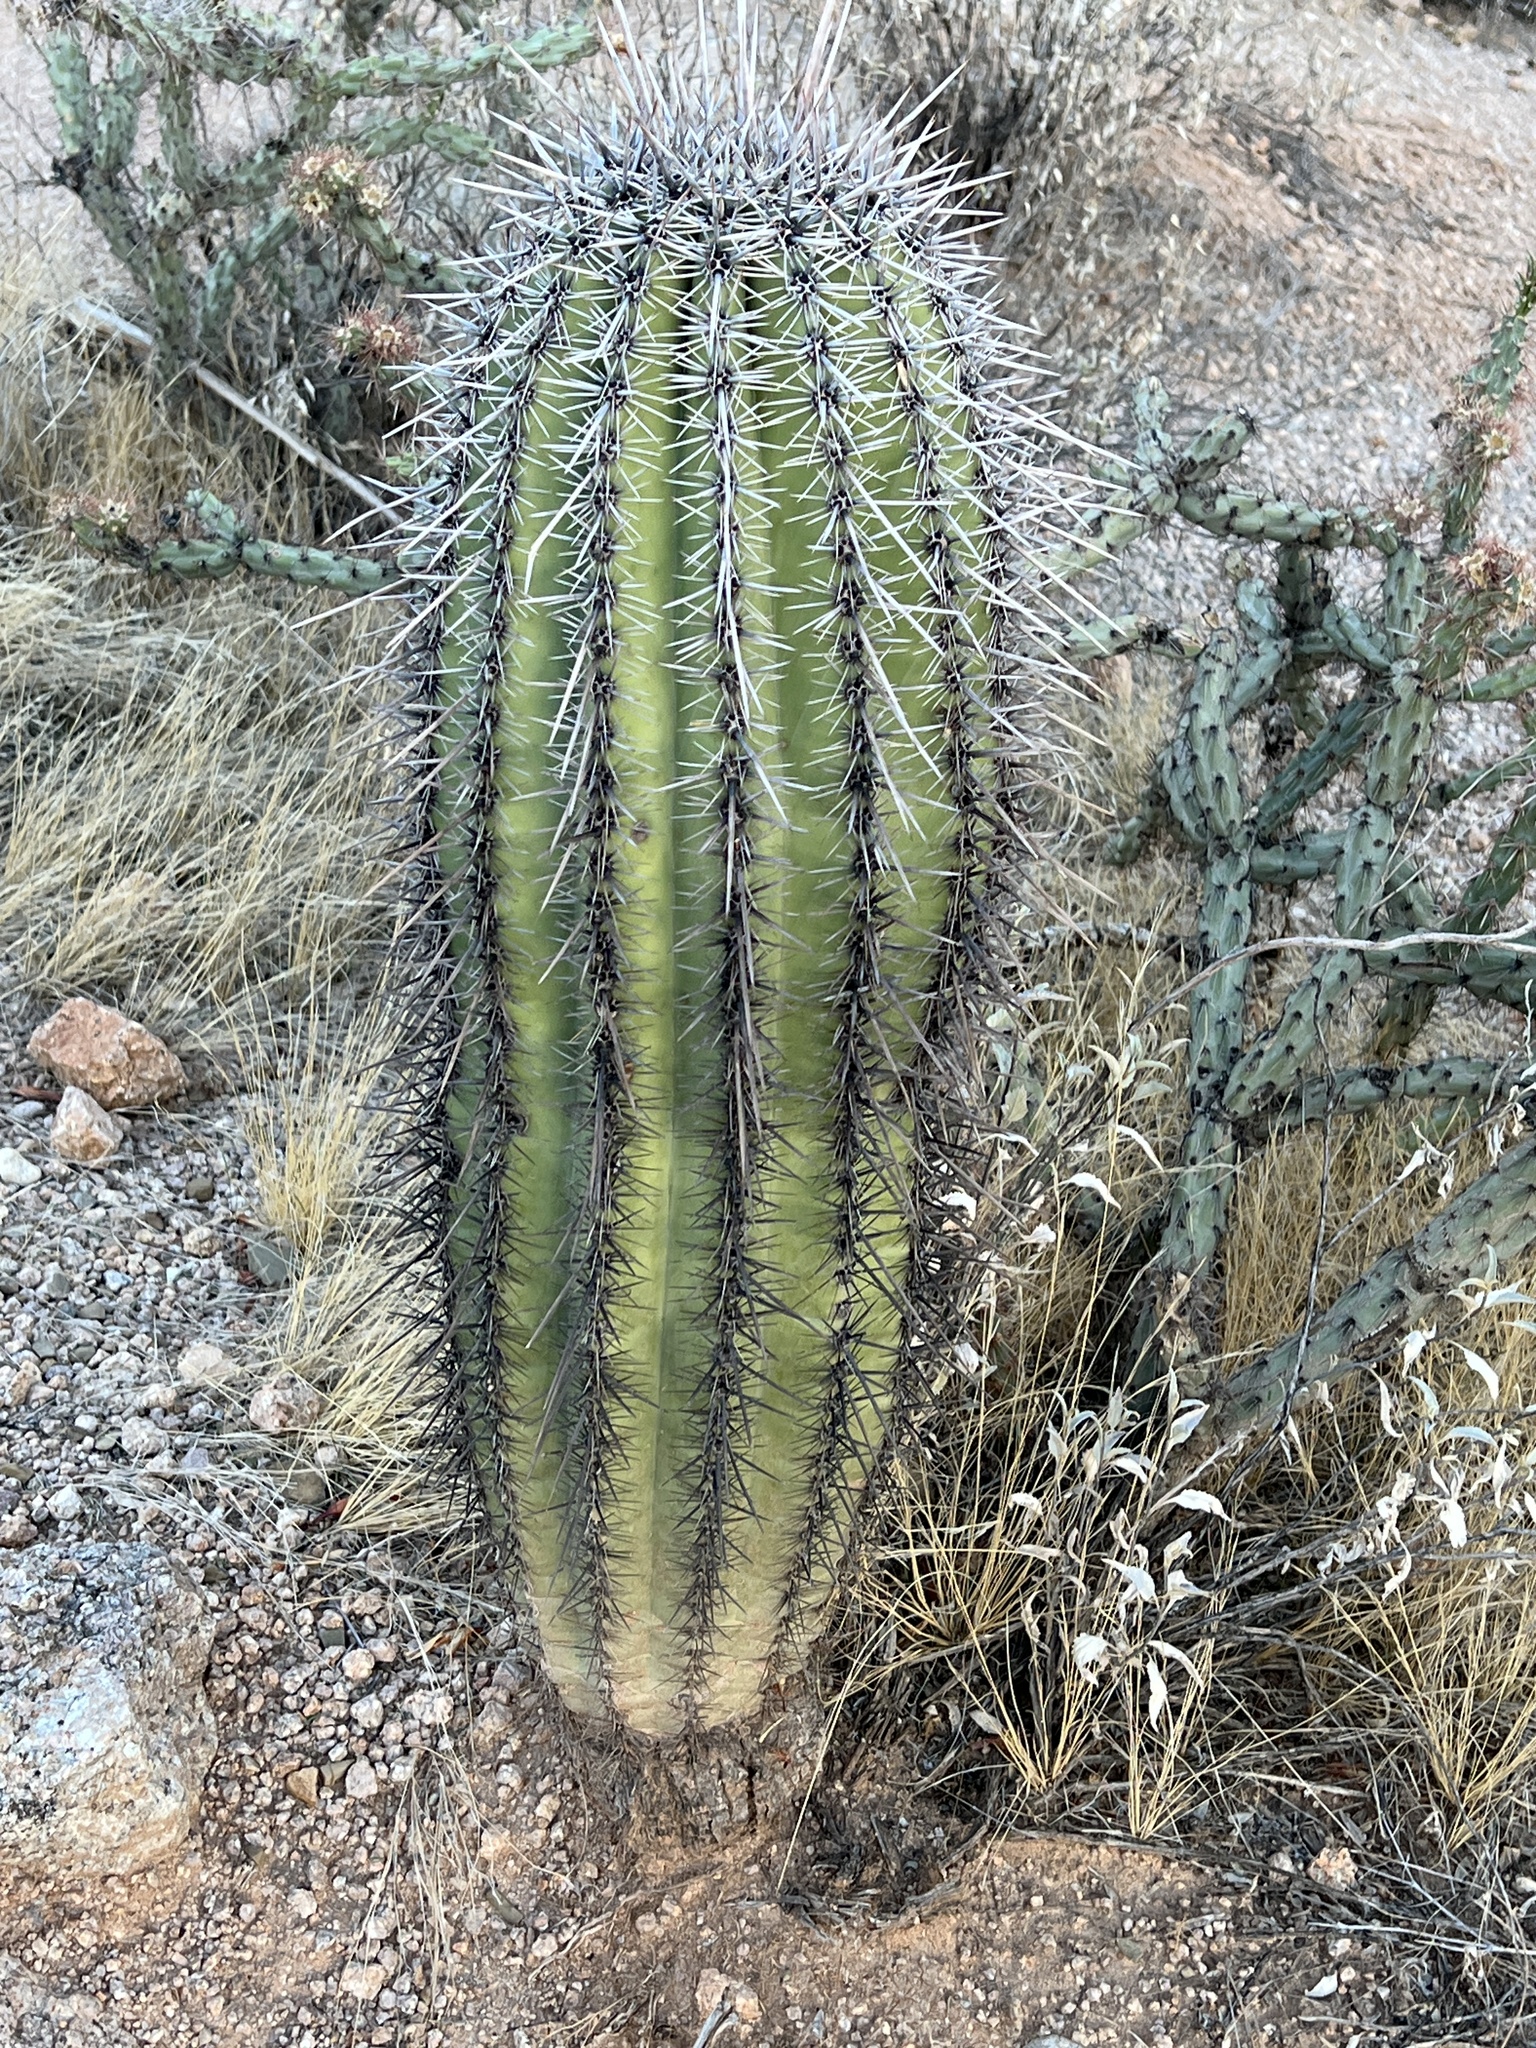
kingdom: Plantae
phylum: Tracheophyta
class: Magnoliopsida
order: Caryophyllales
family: Cactaceae
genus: Carnegiea
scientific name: Carnegiea gigantea
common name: Saguaro
